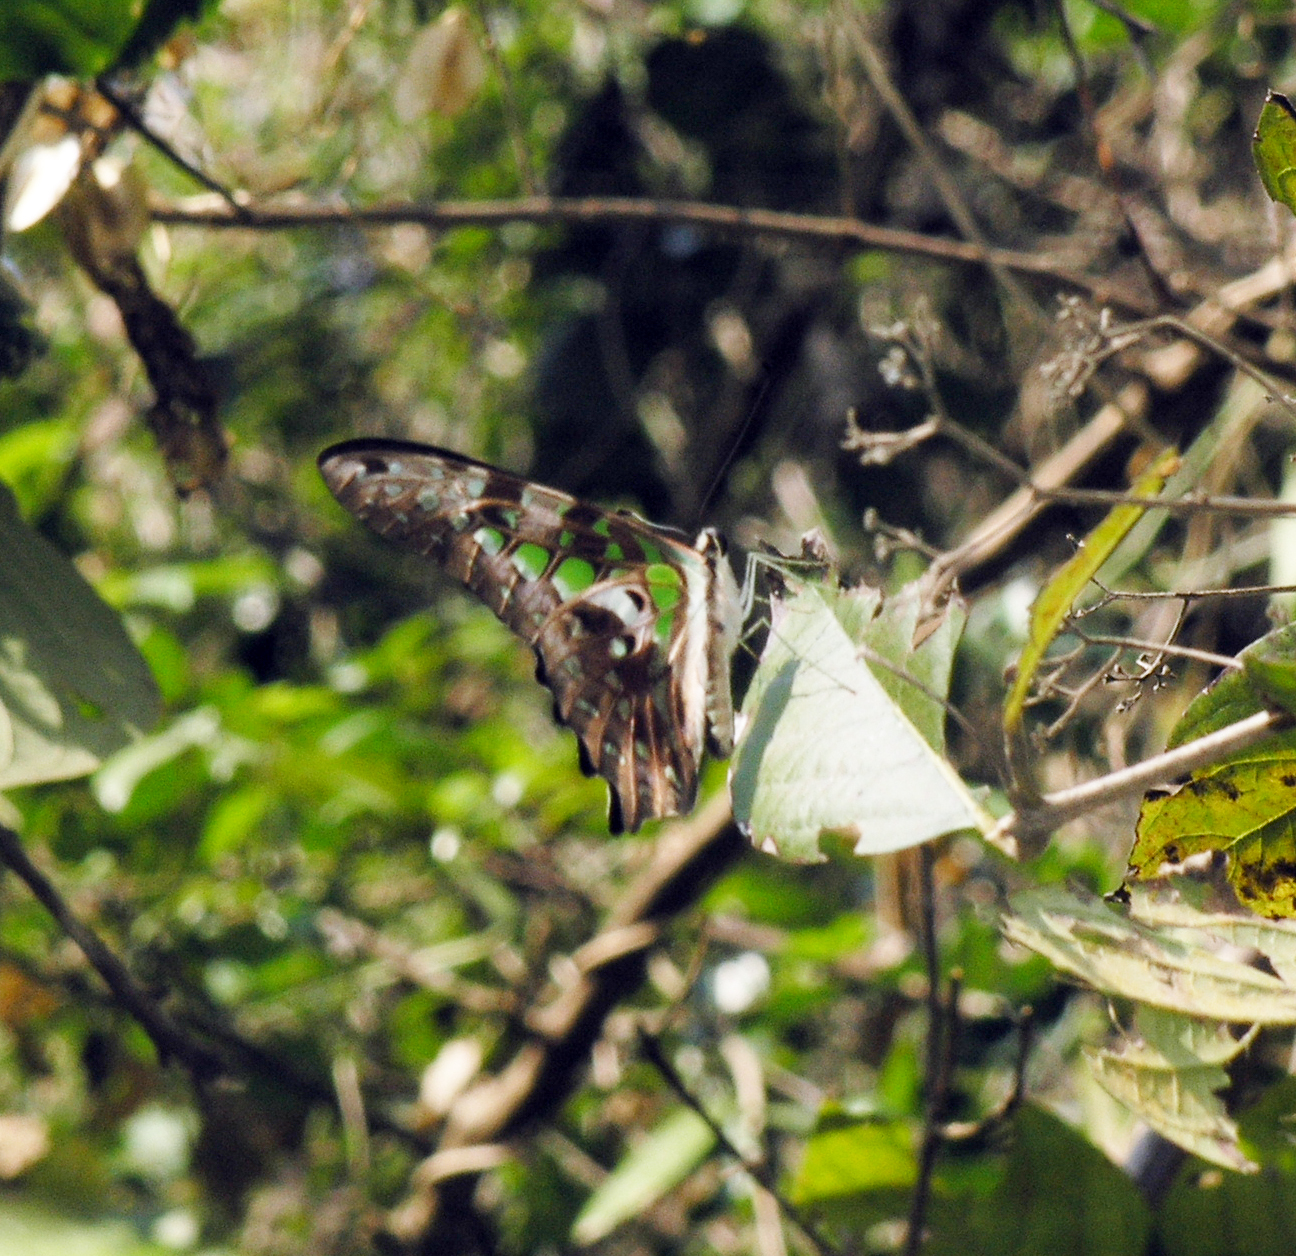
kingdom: Animalia
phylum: Arthropoda
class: Insecta
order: Lepidoptera
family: Papilionidae
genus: Graphium
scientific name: Graphium agamemnon
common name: Tailed jay
